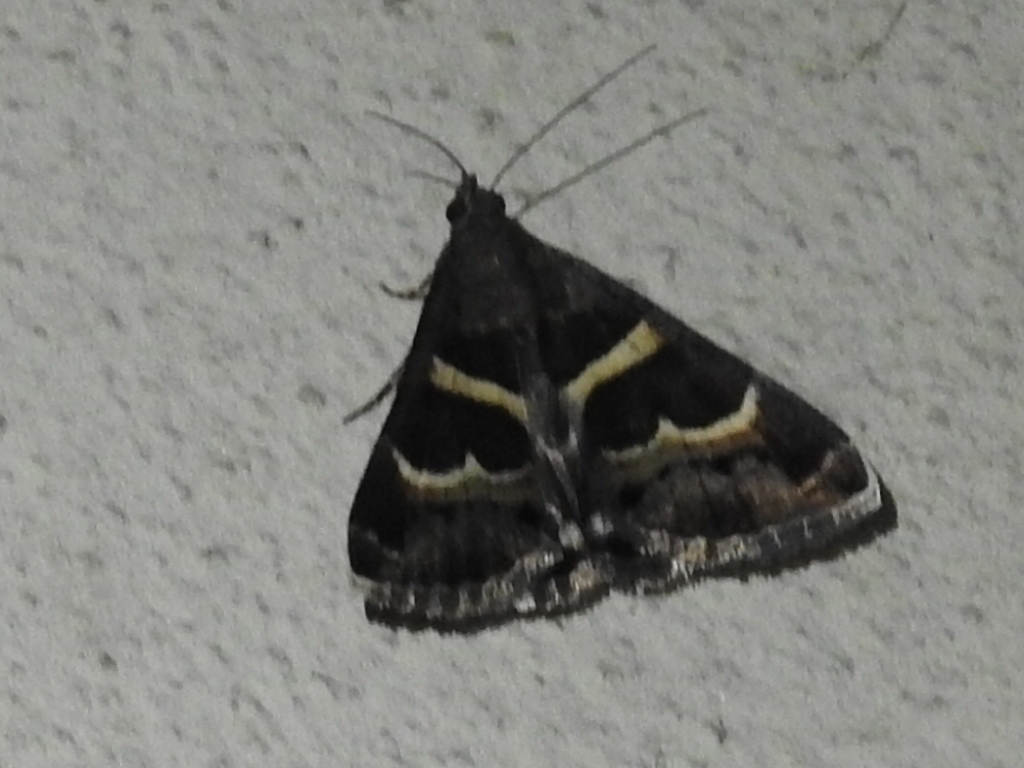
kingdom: Animalia
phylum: Arthropoda
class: Insecta
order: Lepidoptera
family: Erebidae
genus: Grammodes
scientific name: Grammodes stolida
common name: Geometrician
